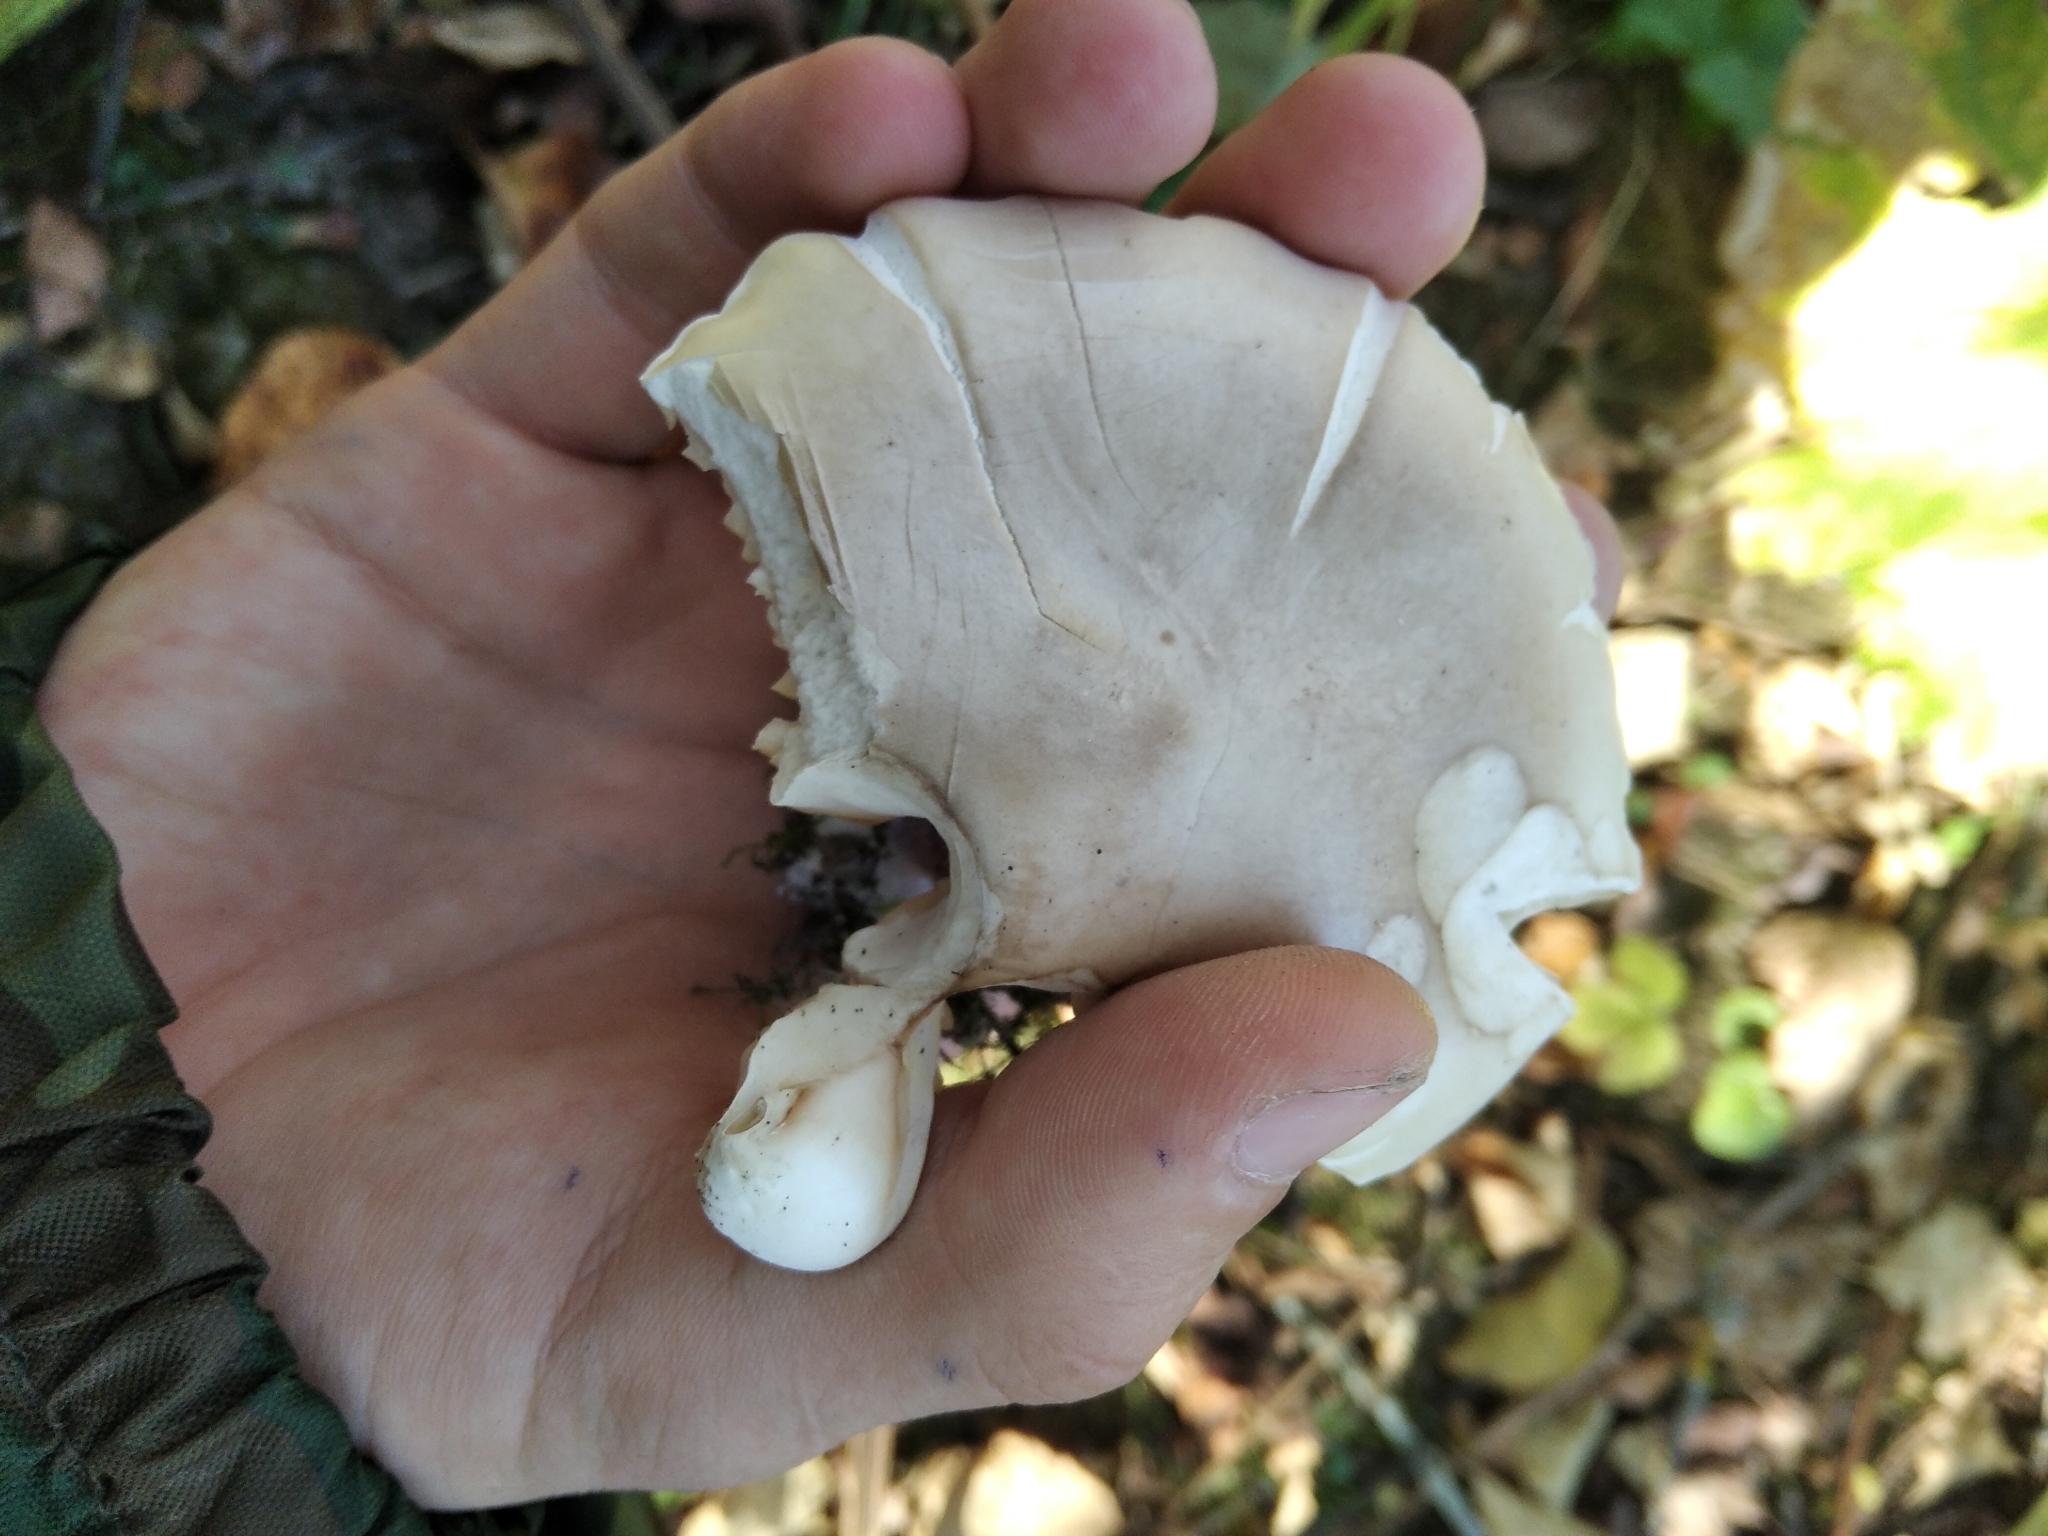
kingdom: Fungi
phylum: Basidiomycota
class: Agaricomycetes
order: Agaricales
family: Omphalotaceae
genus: Collybiopsis
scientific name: Collybiopsis peronata
